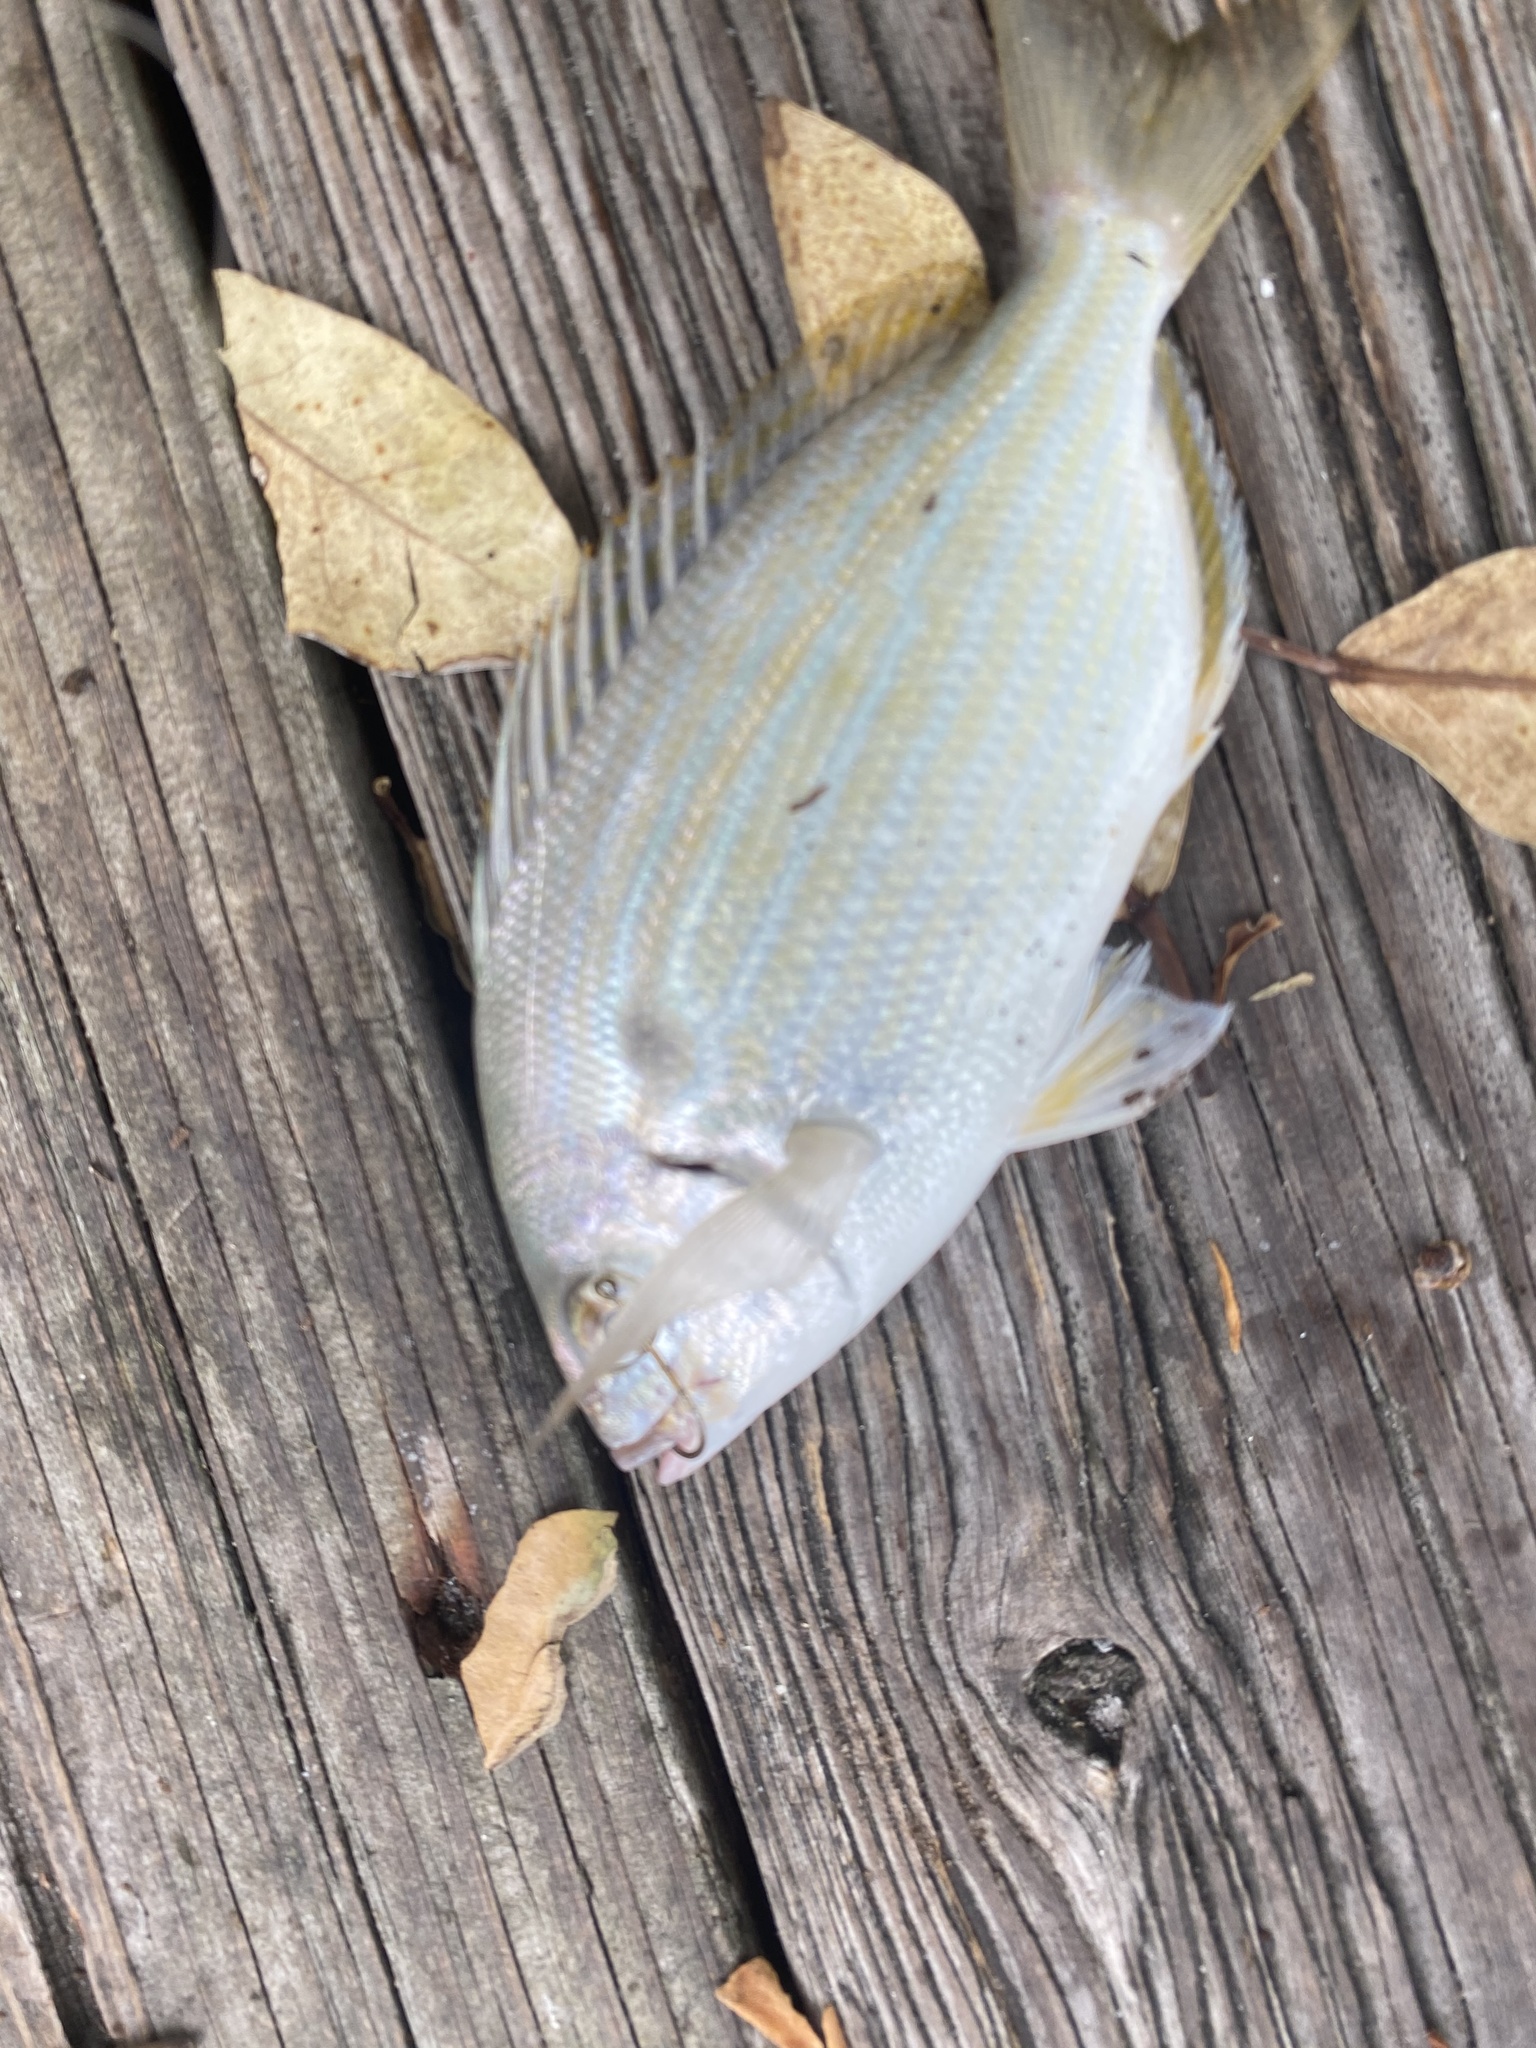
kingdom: Animalia
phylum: Chordata
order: Perciformes
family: Sparidae
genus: Lagodon
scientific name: Lagodon rhomboides
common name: Pinfish
